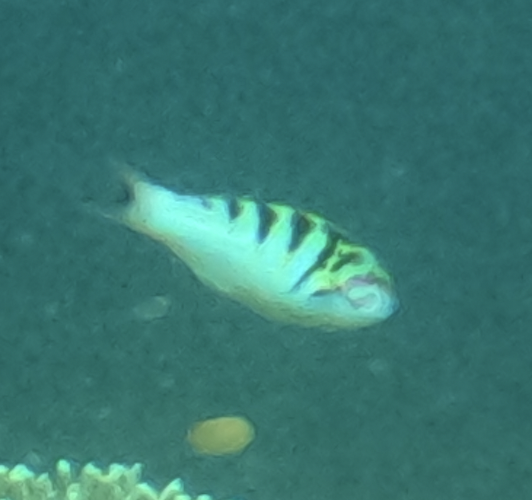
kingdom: Animalia
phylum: Chordata
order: Perciformes
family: Labridae
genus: Thalassoma
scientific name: Thalassoma hardwicke
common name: Sixbar wrasse
